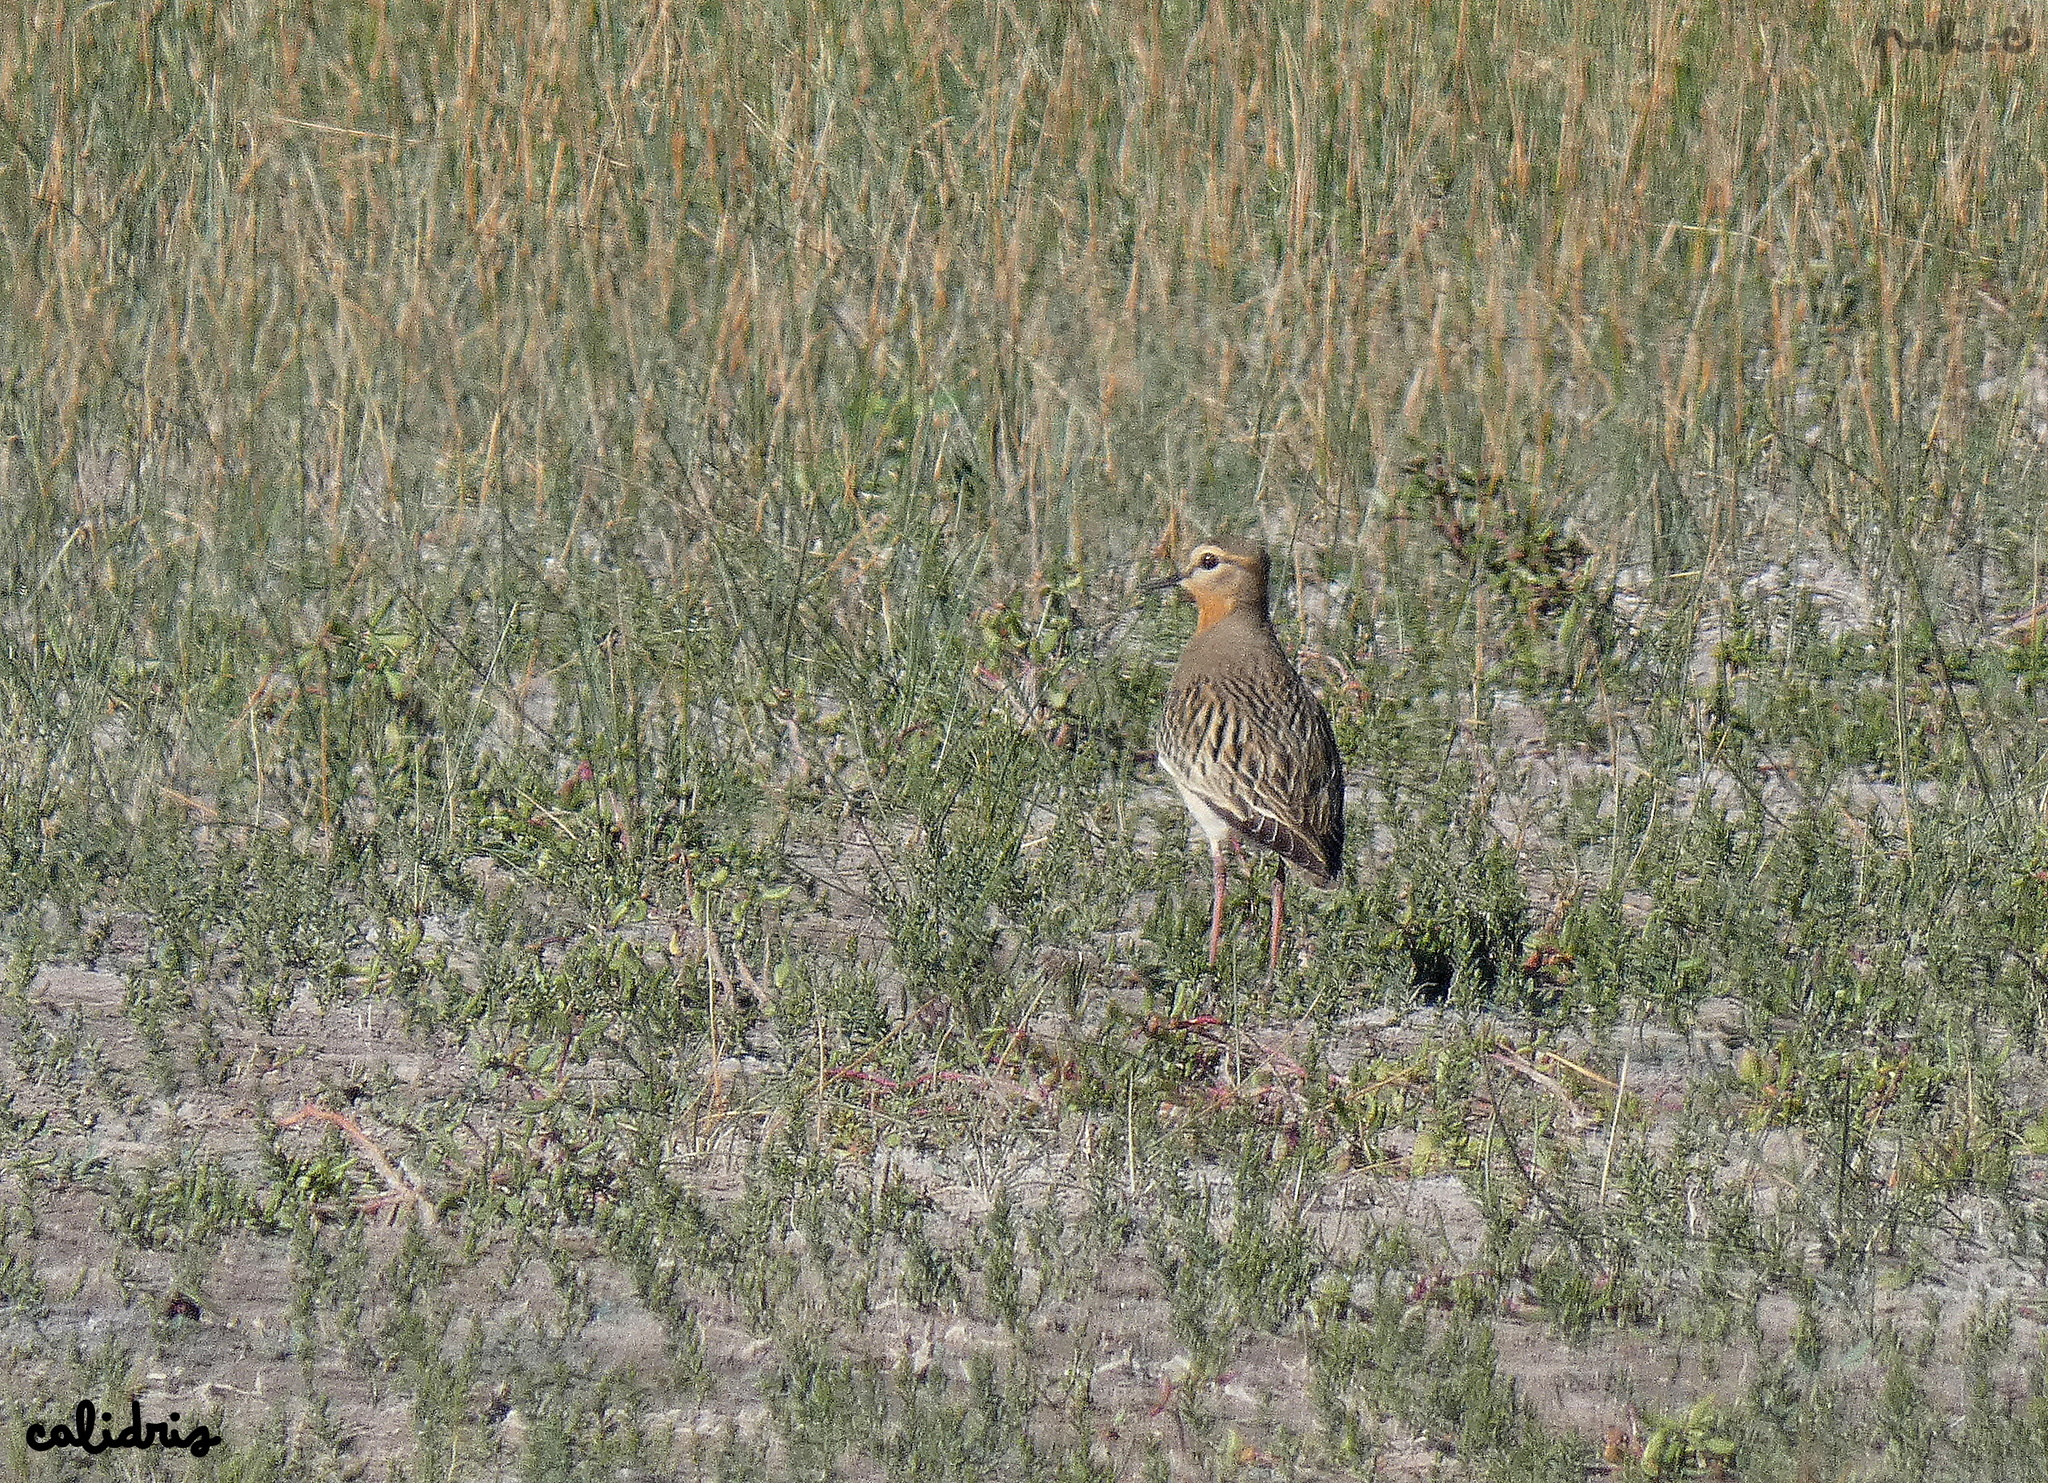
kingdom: Animalia
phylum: Chordata
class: Aves
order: Charadriiformes
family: Charadriidae
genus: Oreopholus
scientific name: Oreopholus ruficollis
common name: Tawny-throated dotterel
